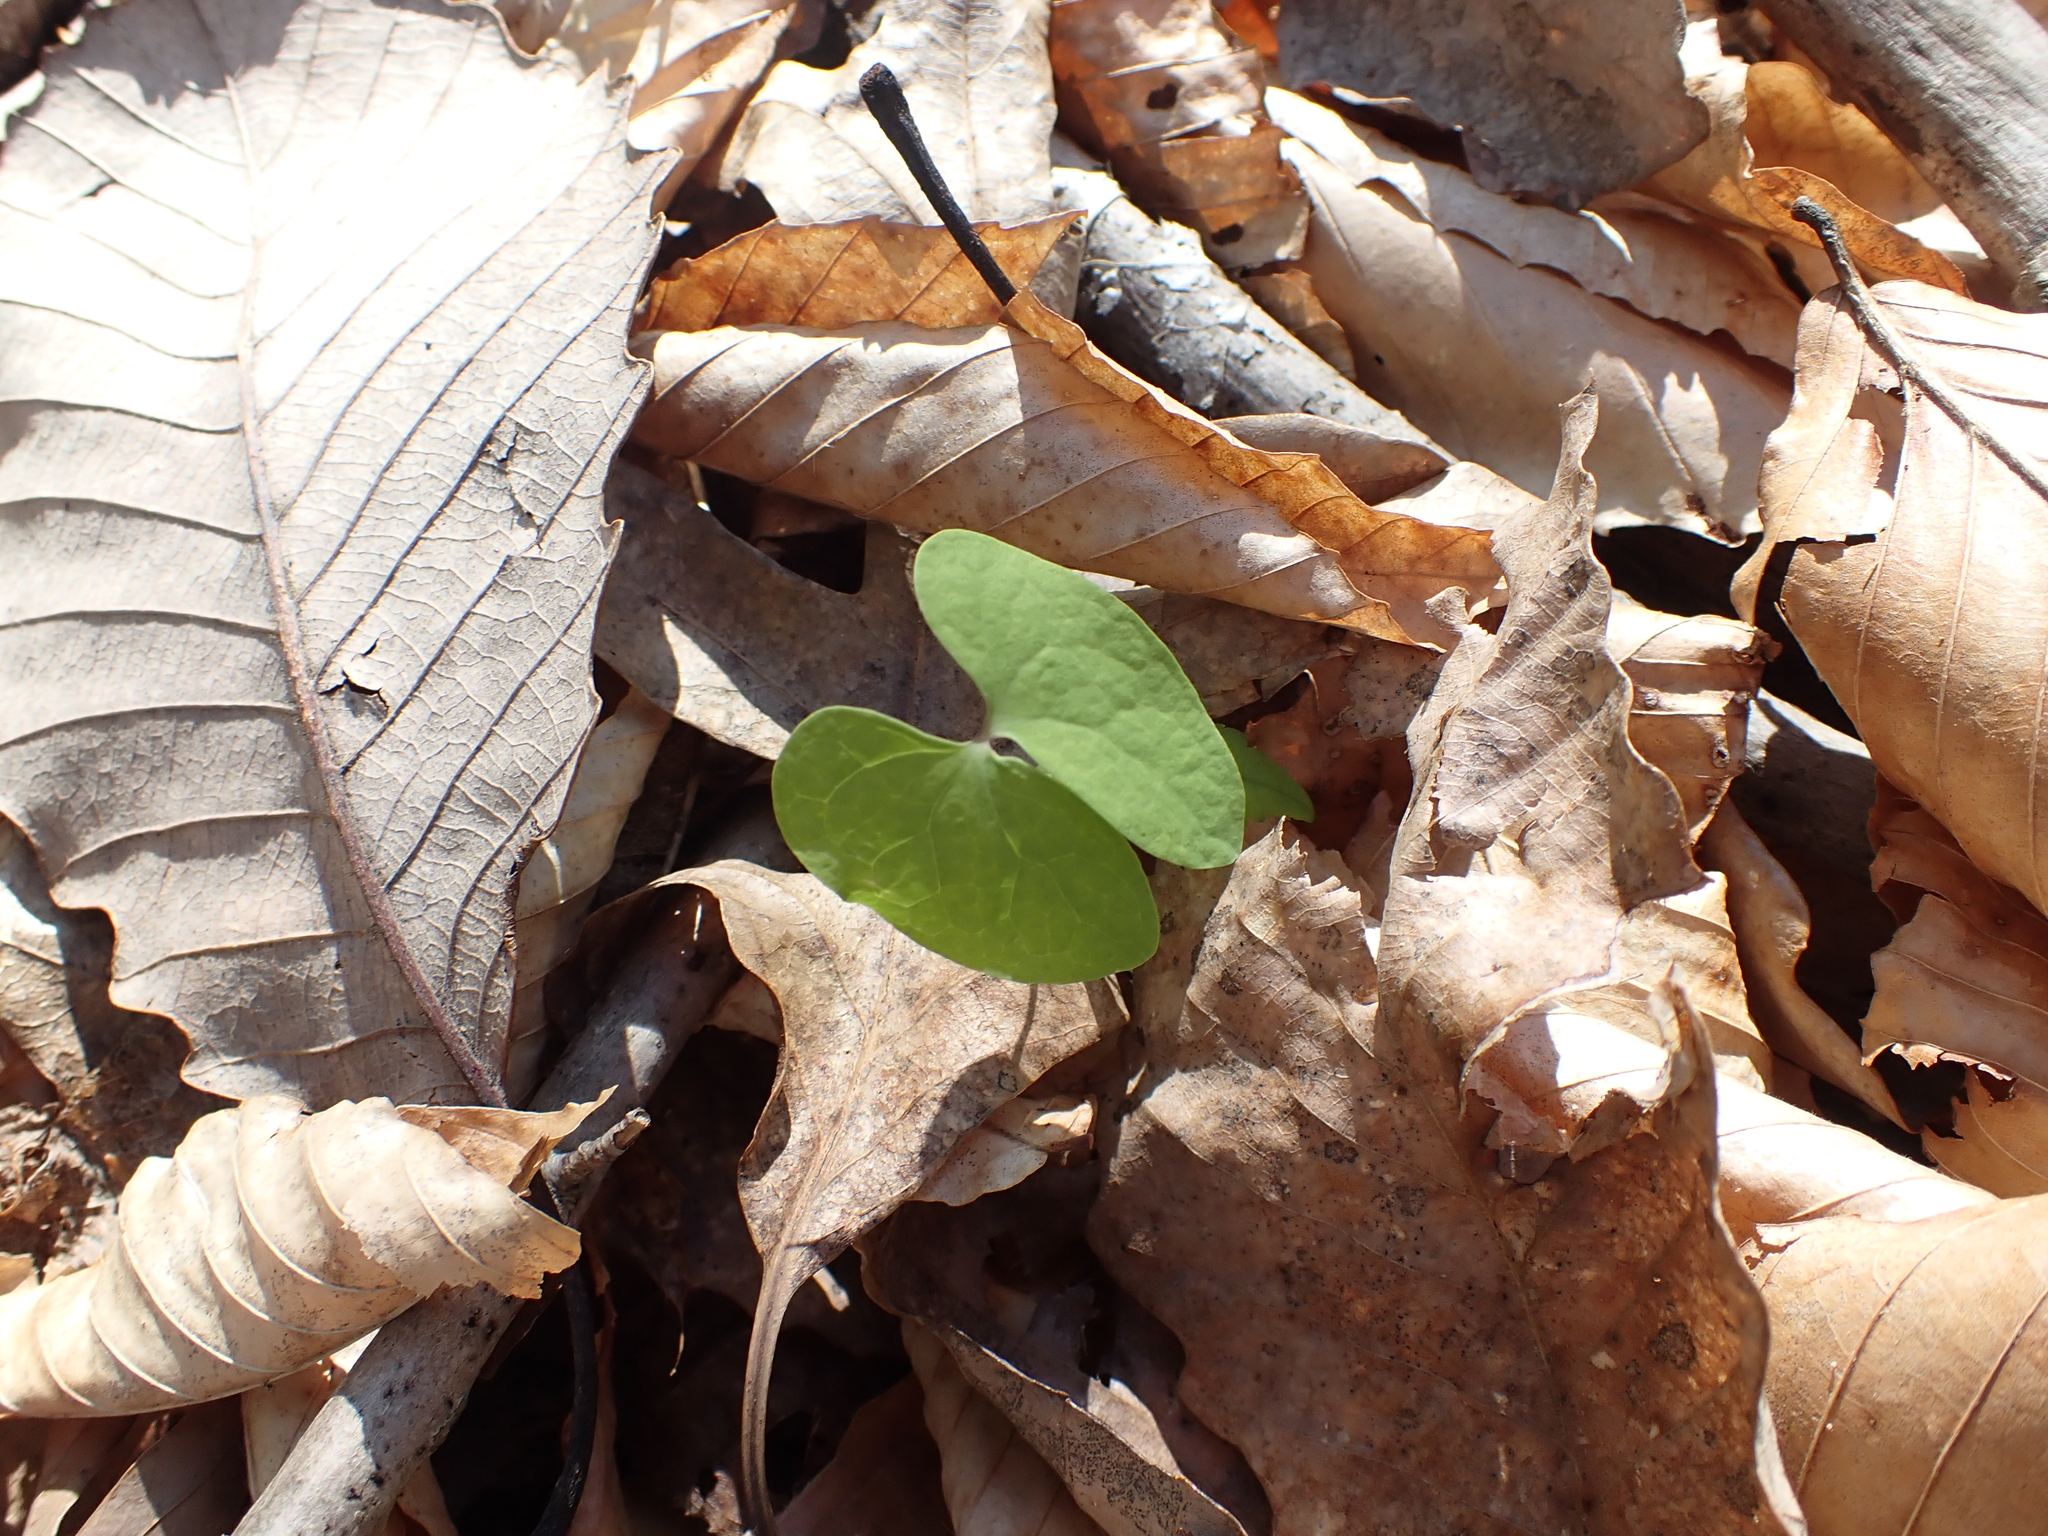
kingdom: Plantae
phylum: Tracheophyta
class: Magnoliopsida
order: Ranunculales
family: Berberidaceae
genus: Jeffersonia
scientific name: Jeffersonia diphylla
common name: Rheumatism-root
